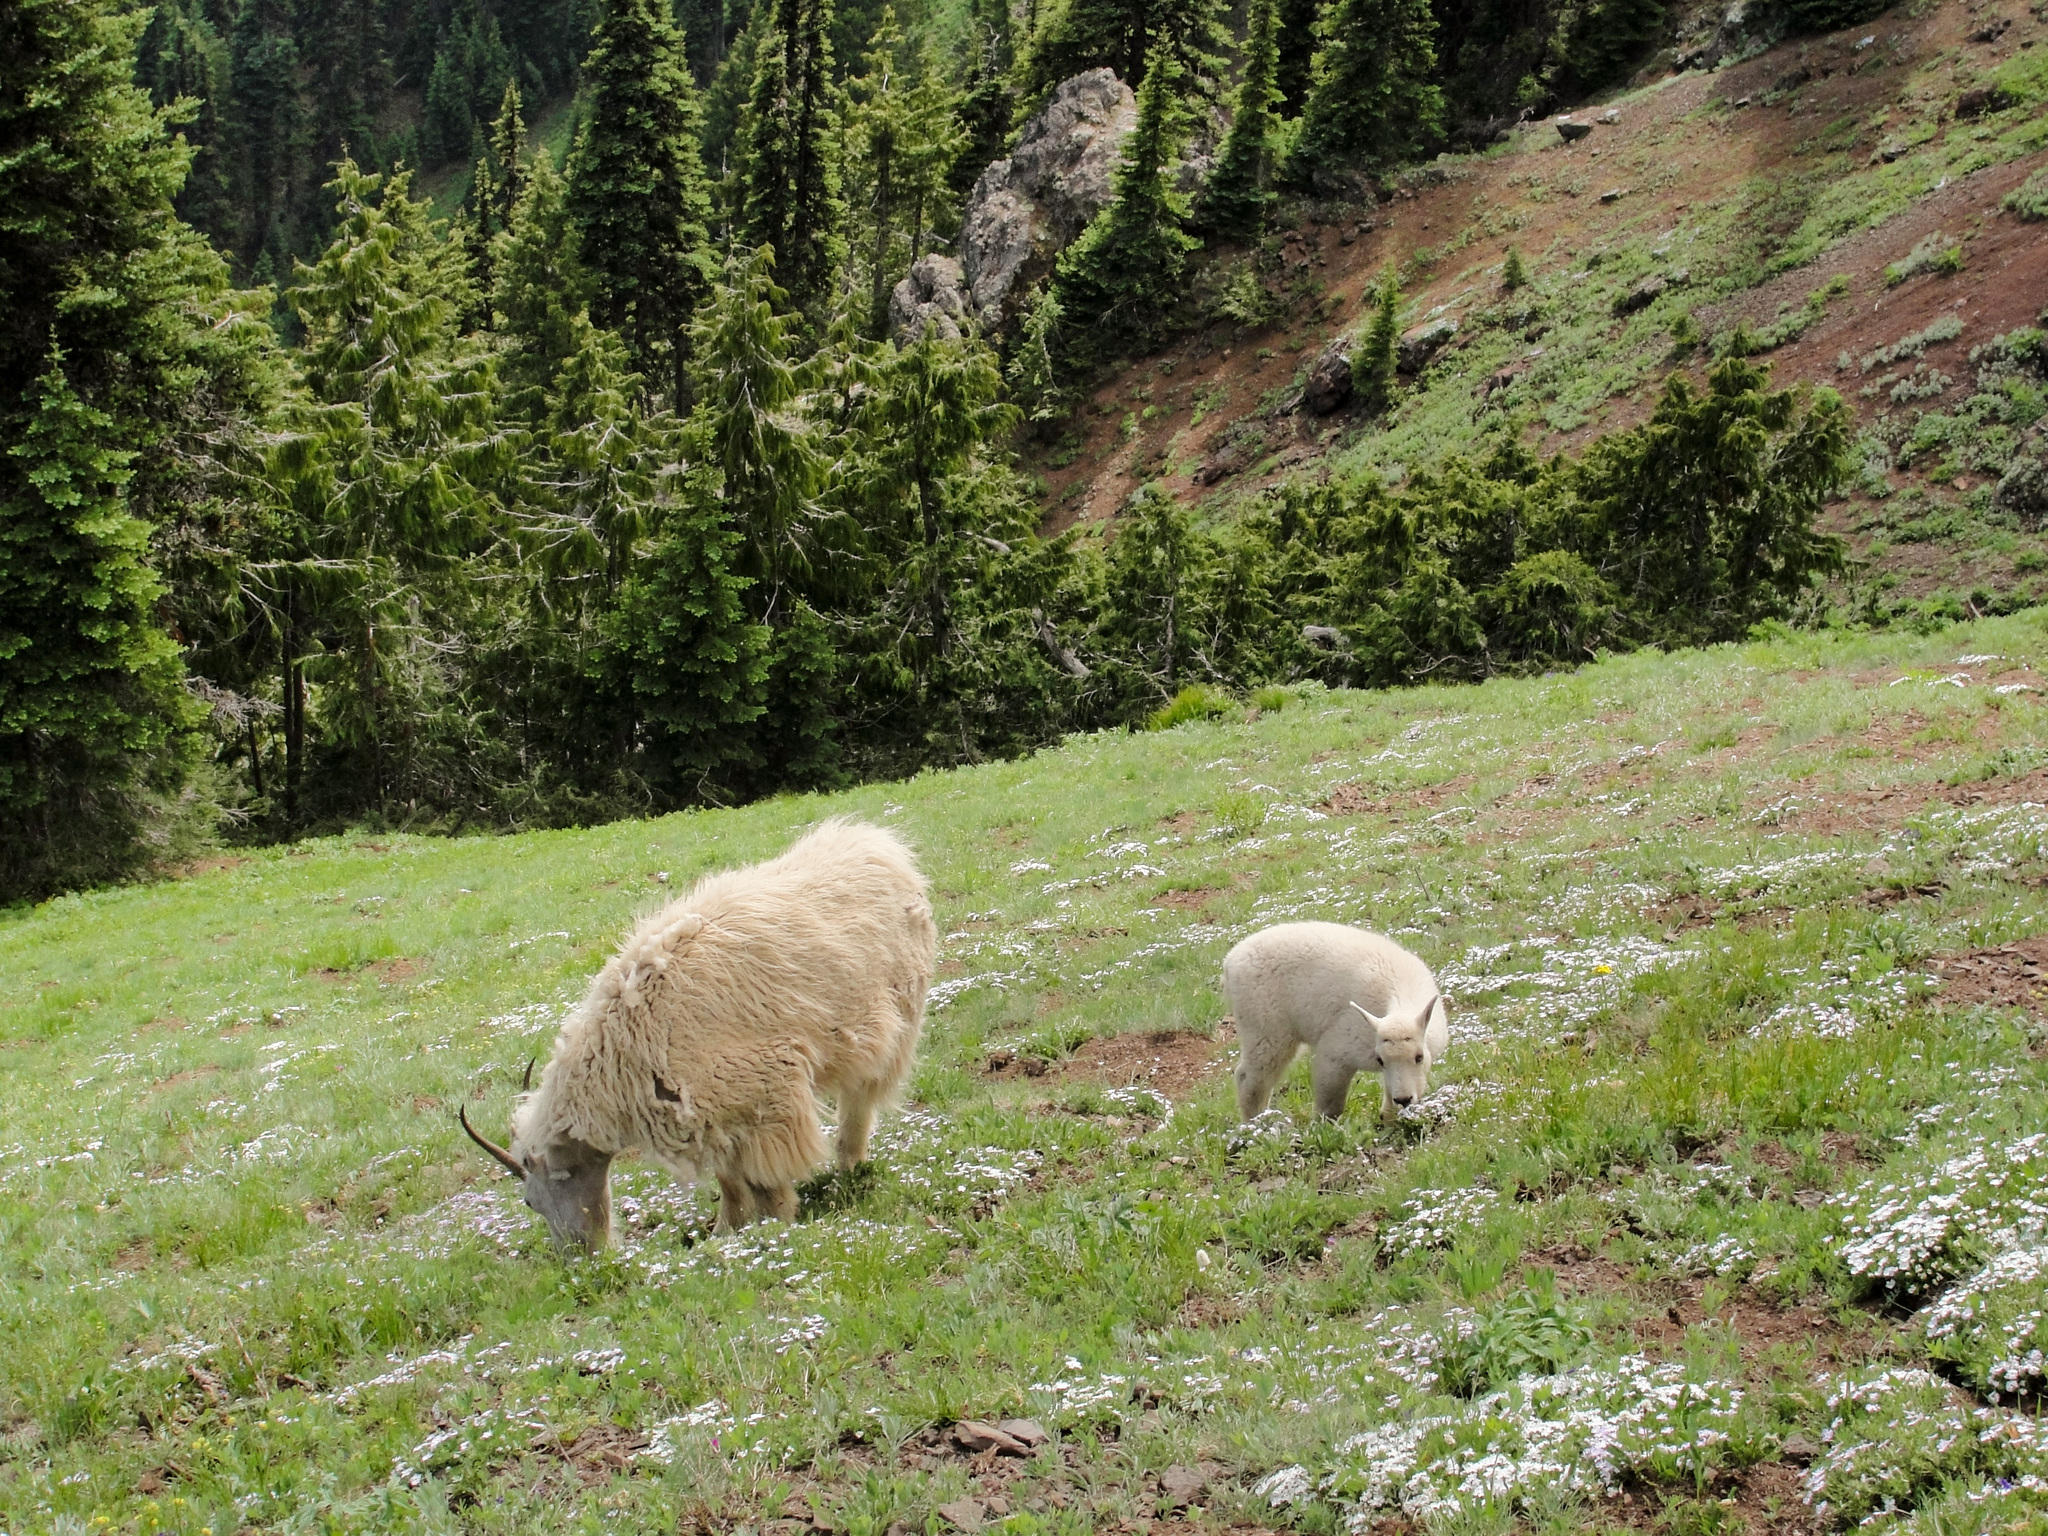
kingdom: Animalia
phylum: Chordata
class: Mammalia
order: Artiodactyla
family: Bovidae
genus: Oreamnos
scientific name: Oreamnos americanus
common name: Mountain goat
